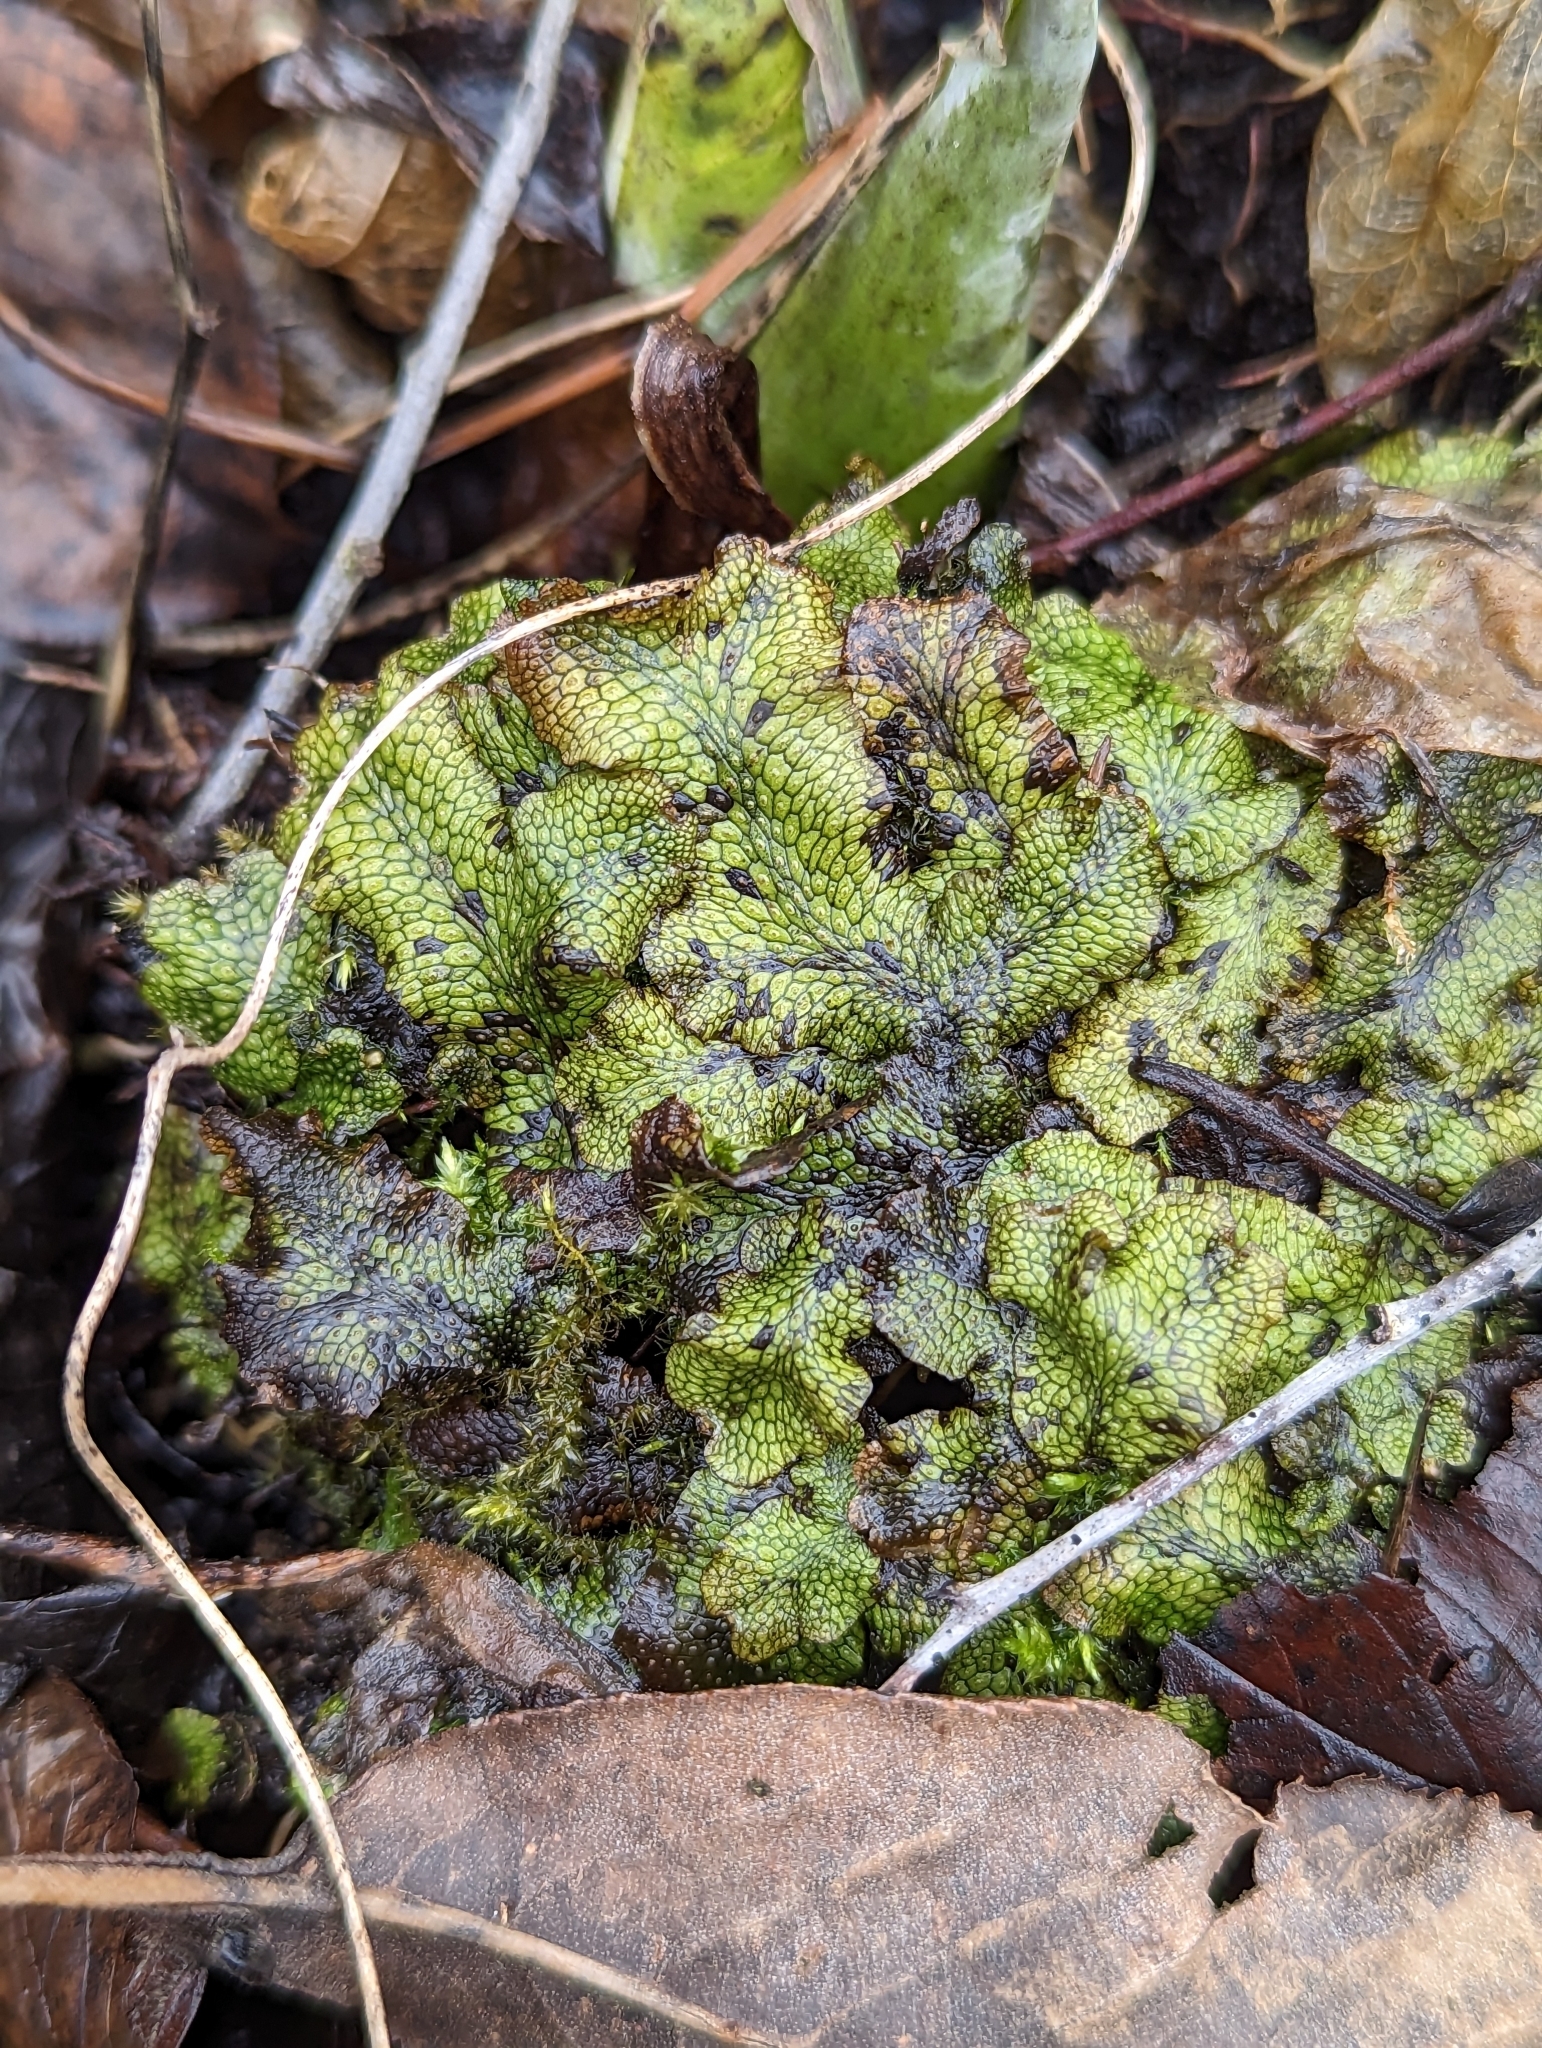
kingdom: Plantae
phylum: Marchantiophyta
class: Marchantiopsida
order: Marchantiales
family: Conocephalaceae
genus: Conocephalum
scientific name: Conocephalum salebrosum
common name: Cat-tongue liverwort
